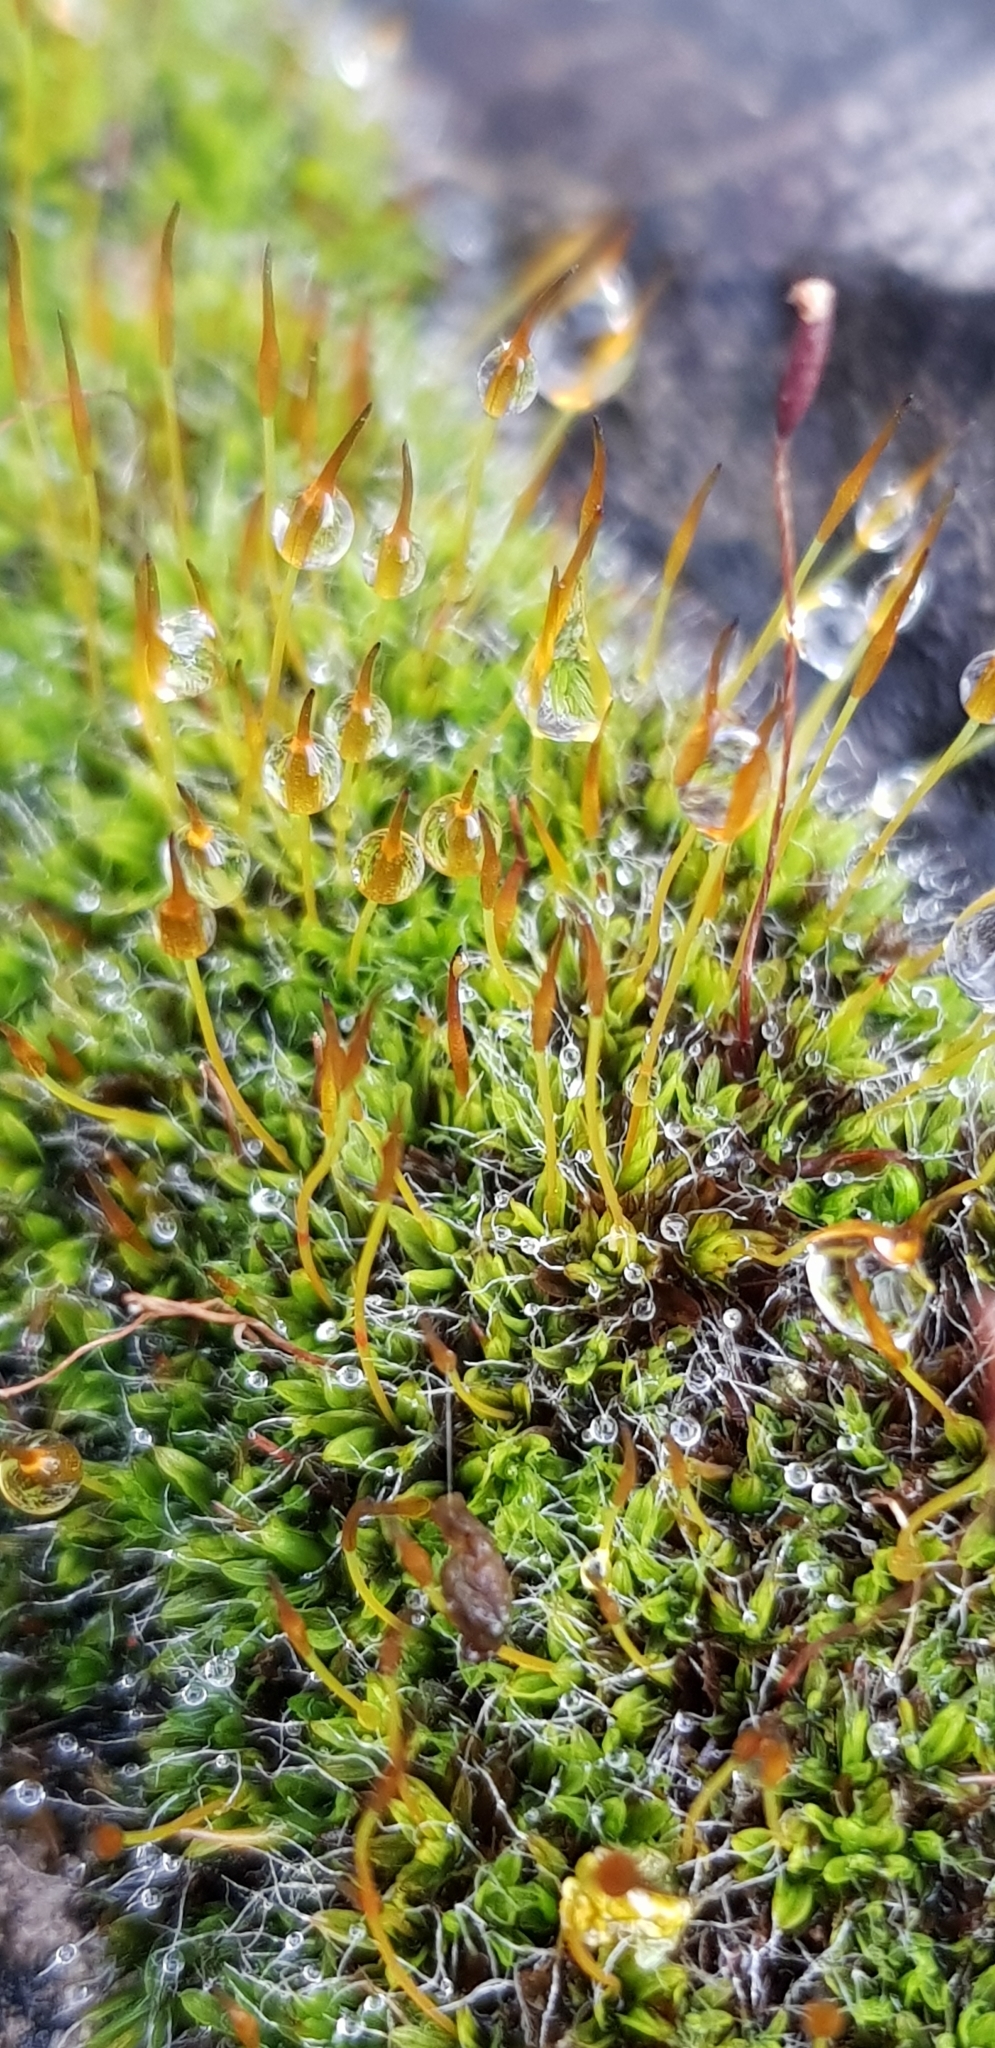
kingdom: Plantae
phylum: Bryophyta
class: Bryopsida
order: Pottiales
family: Pottiaceae
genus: Tortula
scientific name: Tortula muralis
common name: Wall screw-moss
